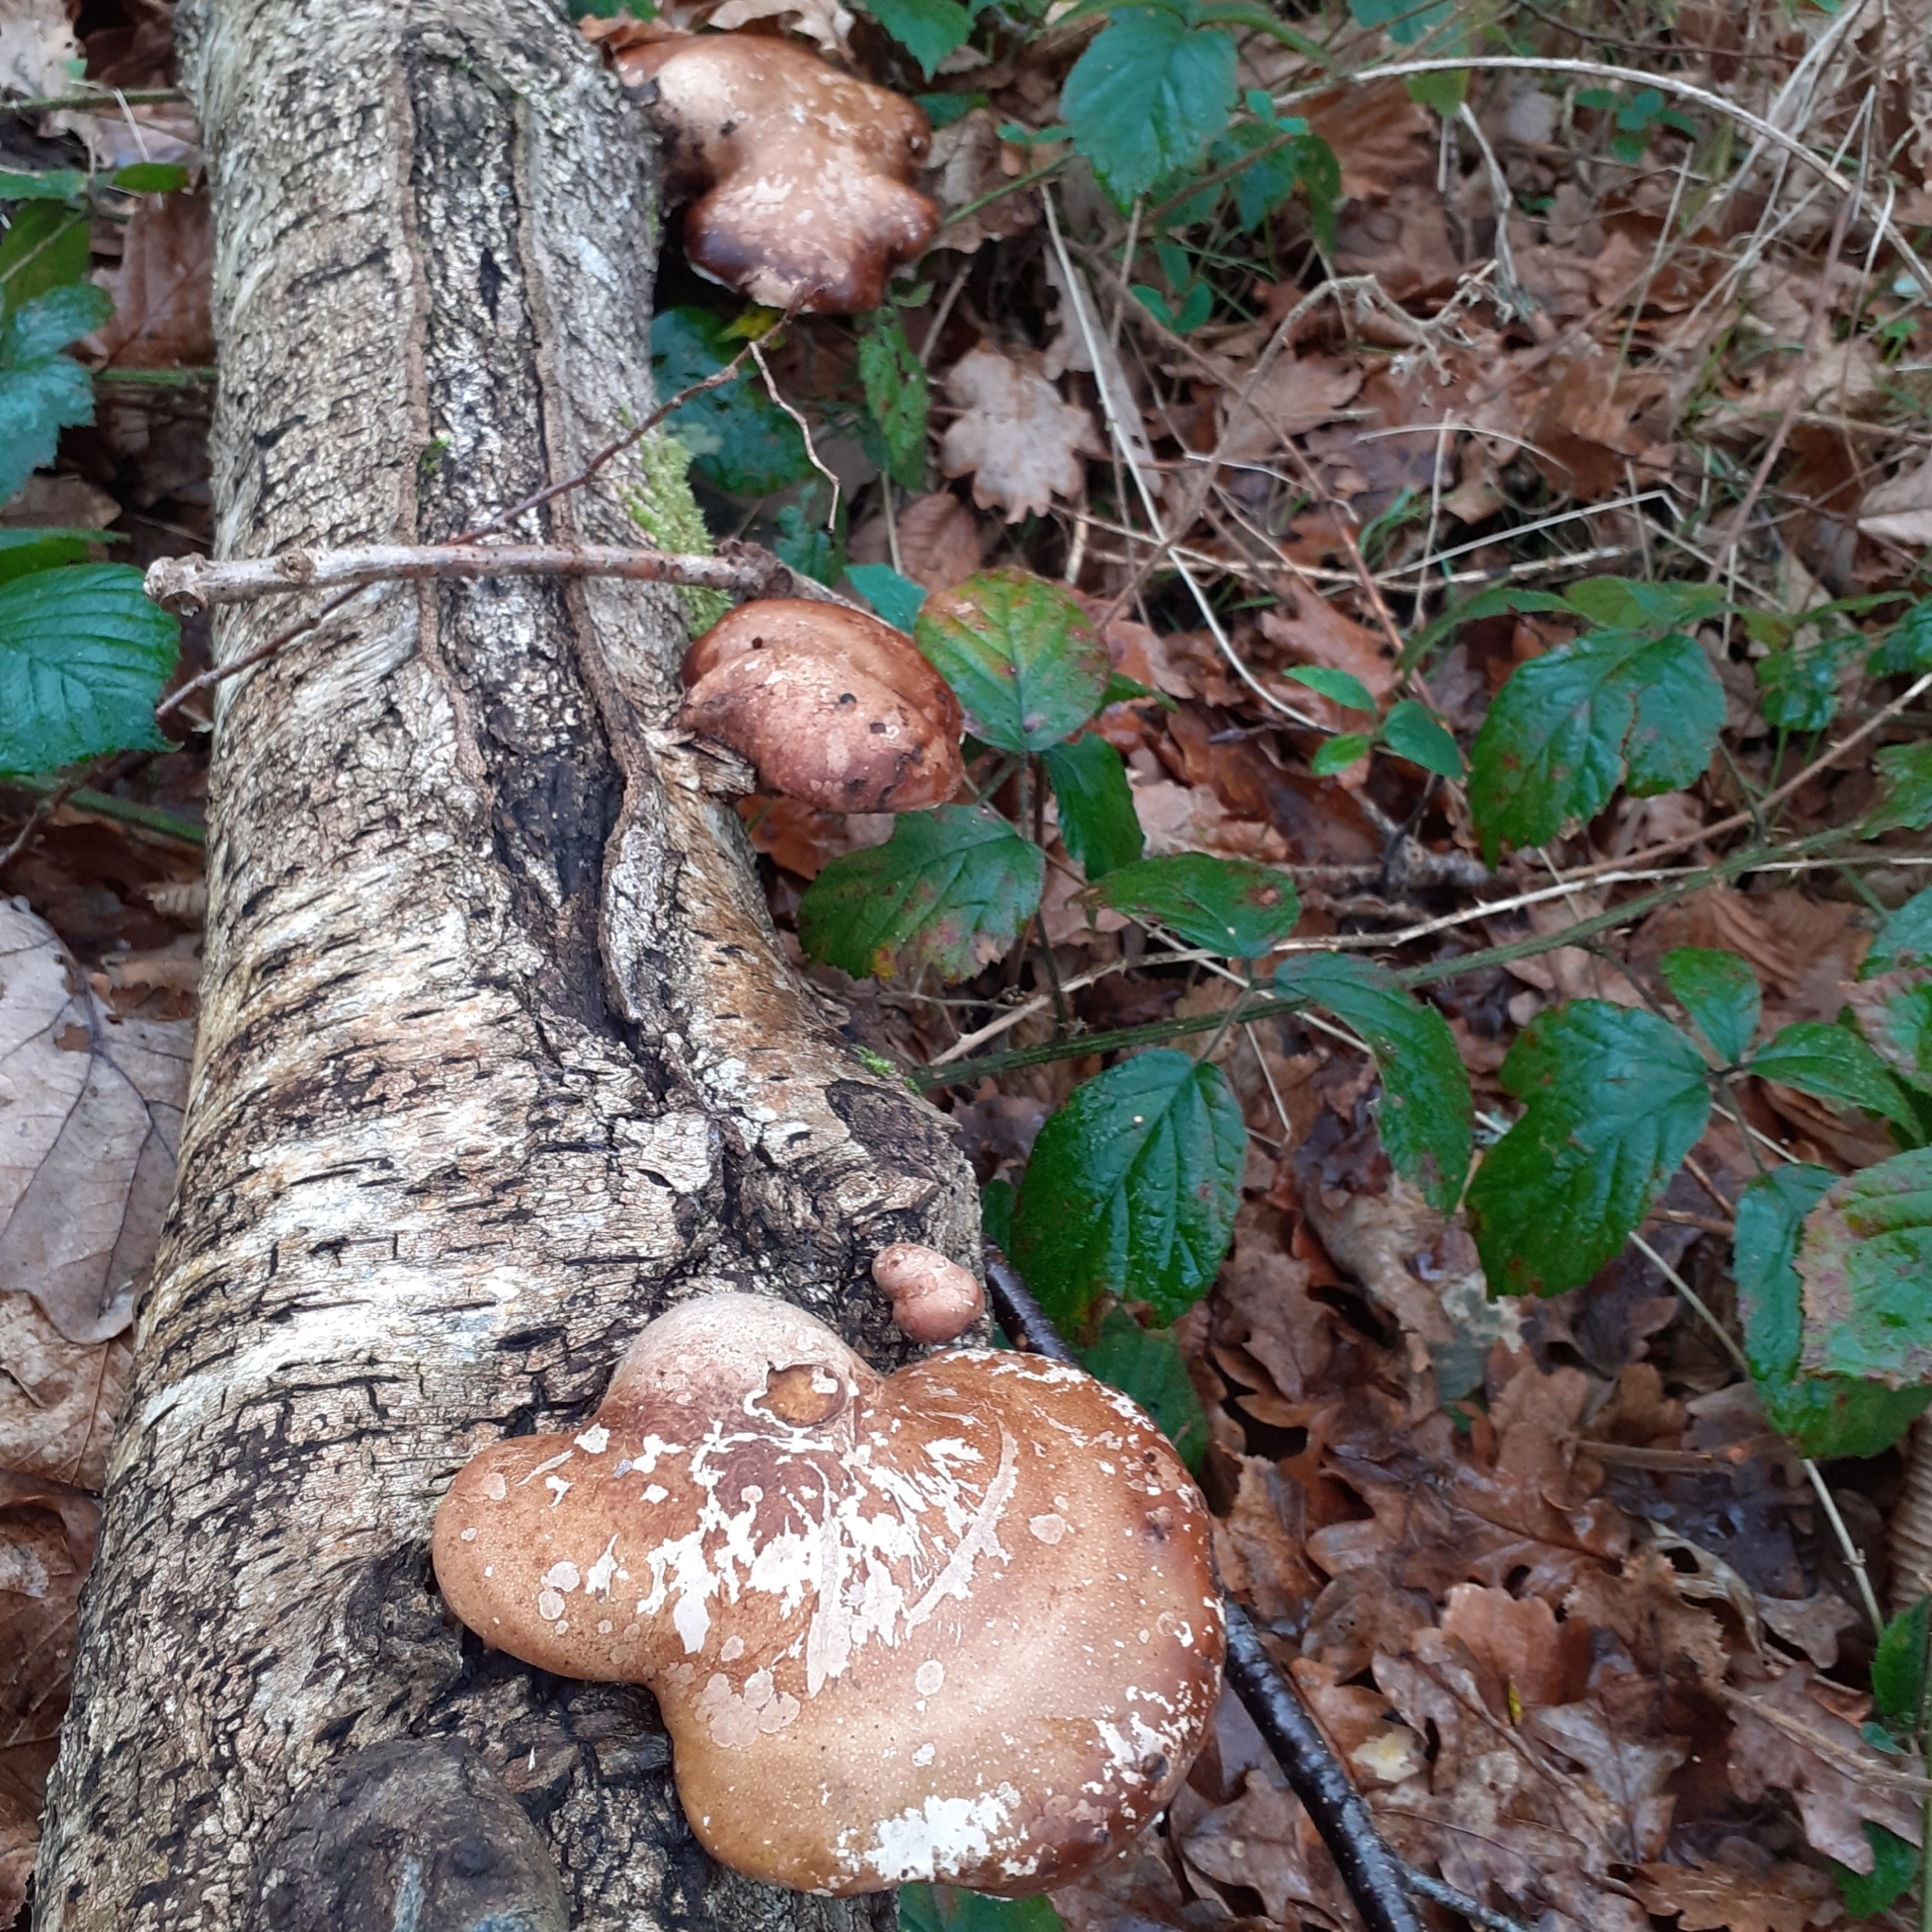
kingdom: Fungi
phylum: Basidiomycota
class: Agaricomycetes
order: Polyporales
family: Fomitopsidaceae
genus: Fomitopsis
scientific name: Fomitopsis betulina
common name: Birch polypore
